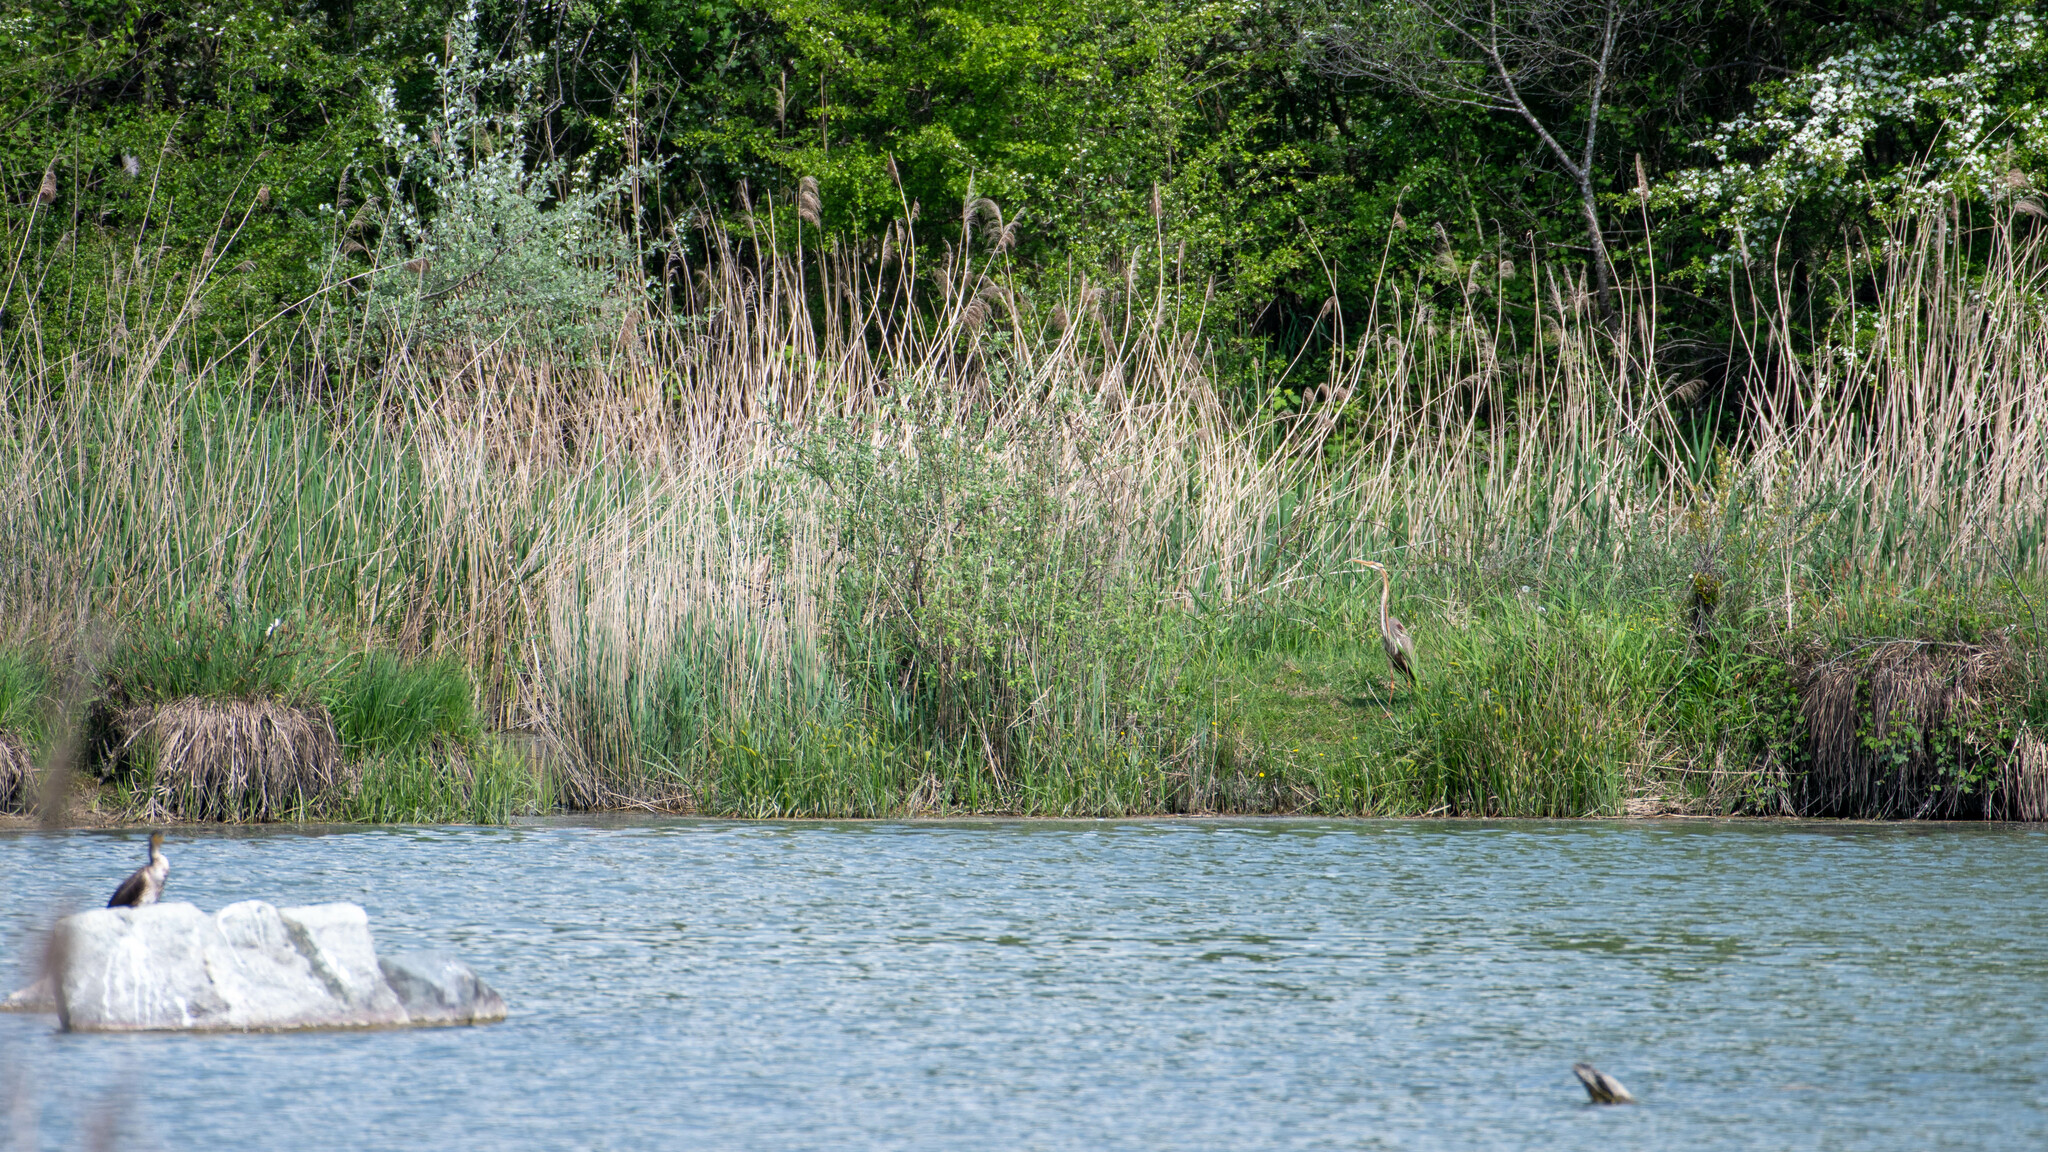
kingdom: Animalia
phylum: Chordata
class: Aves
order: Pelecaniformes
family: Ardeidae
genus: Ardea
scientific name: Ardea purpurea
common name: Purple heron
